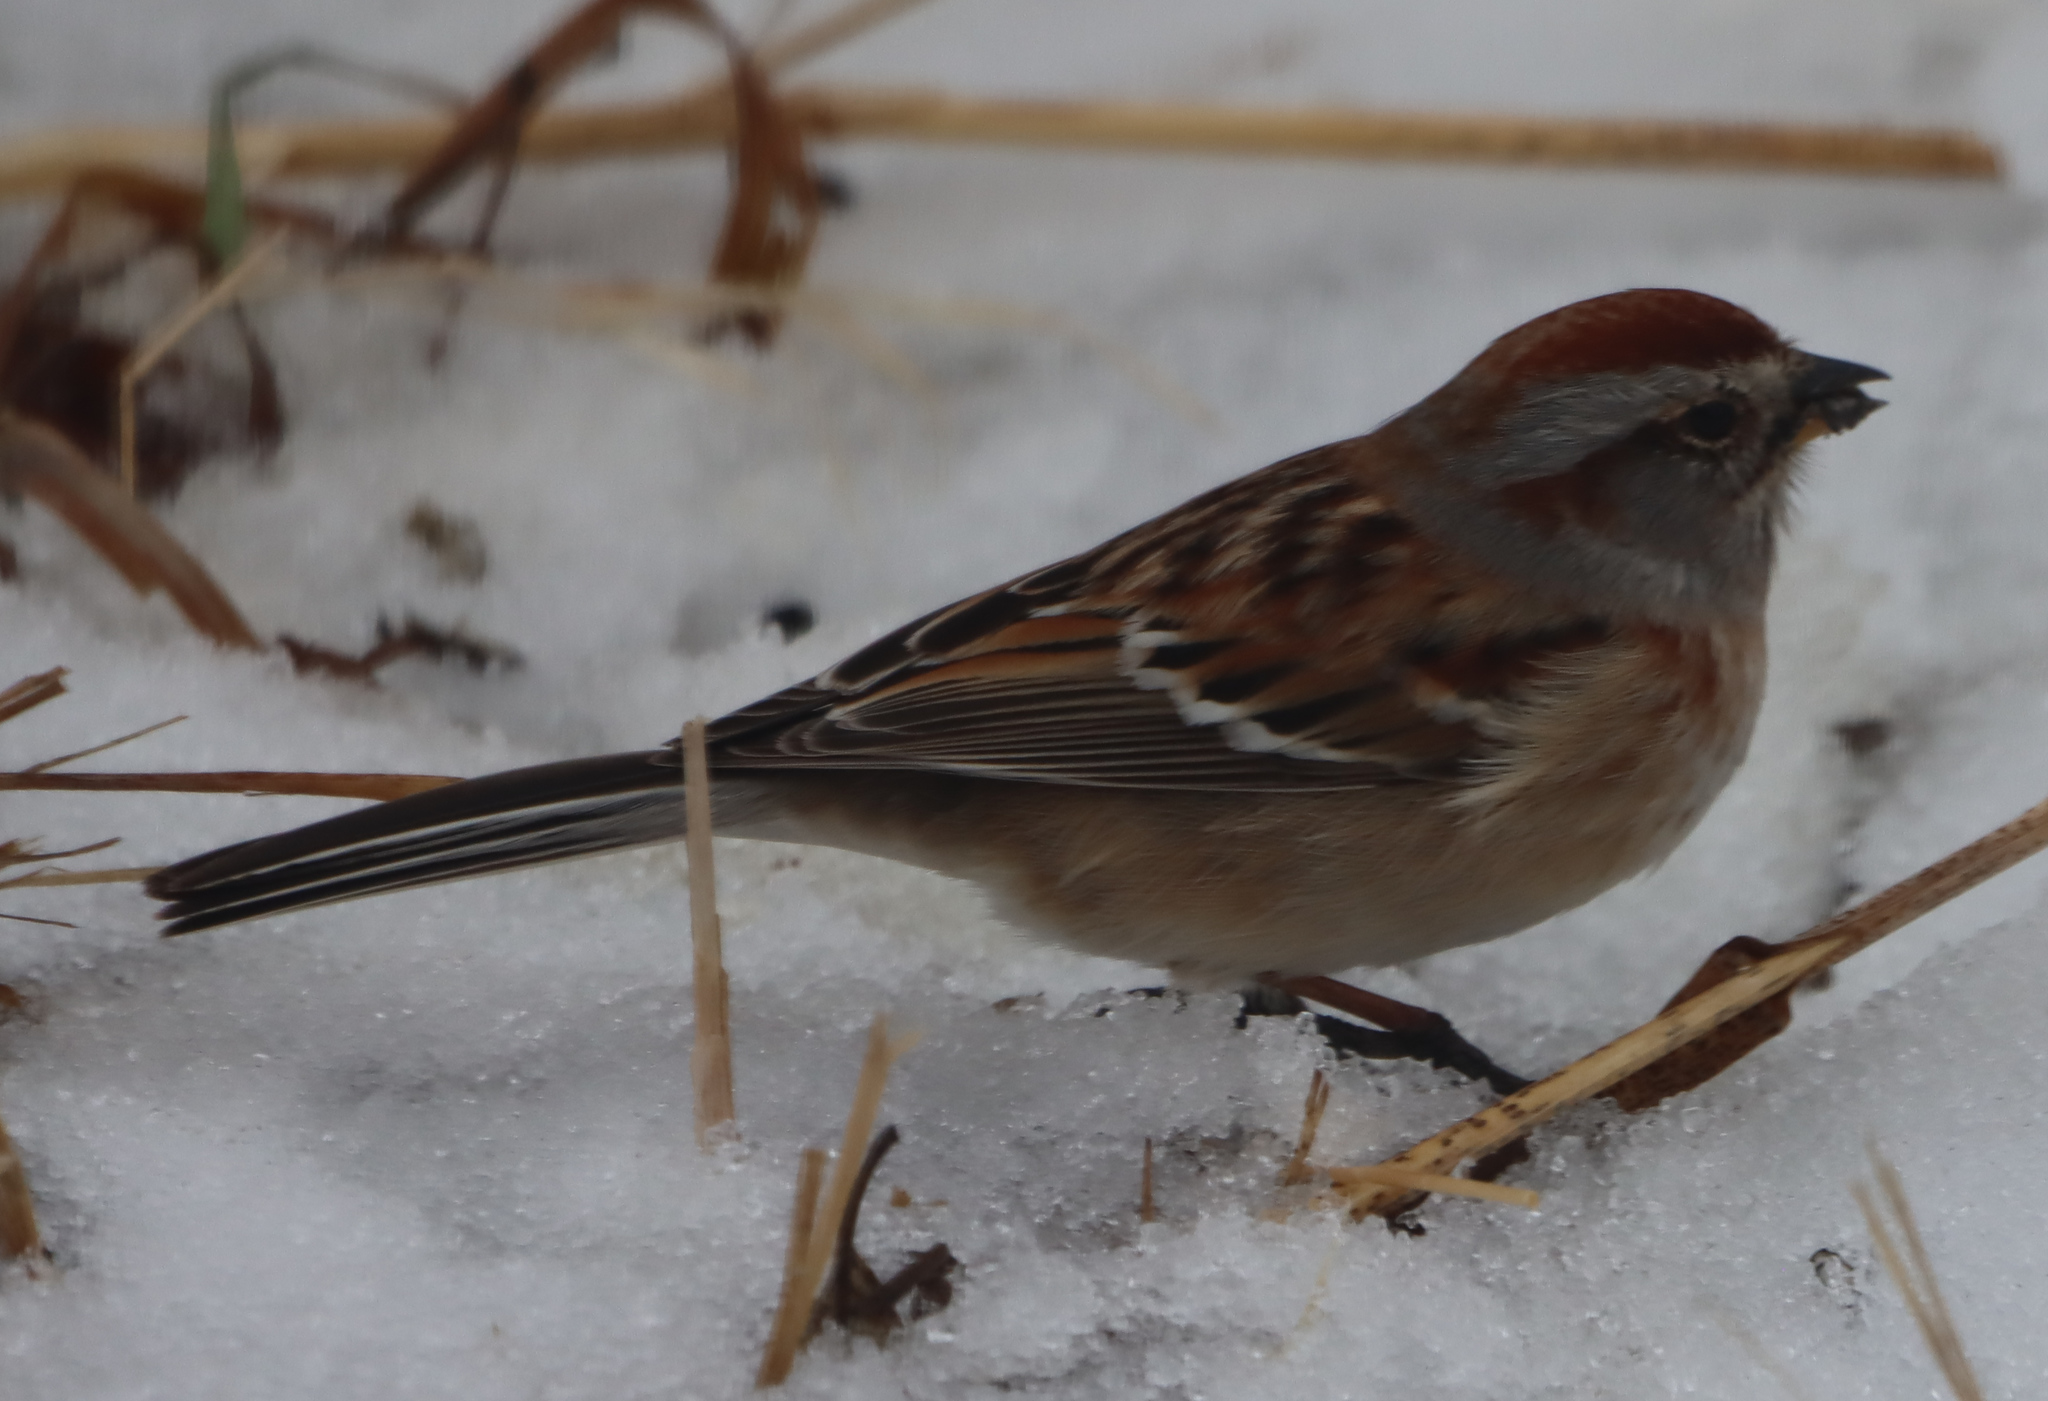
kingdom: Animalia
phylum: Chordata
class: Aves
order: Passeriformes
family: Passerellidae
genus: Spizelloides
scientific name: Spizelloides arborea
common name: American tree sparrow
